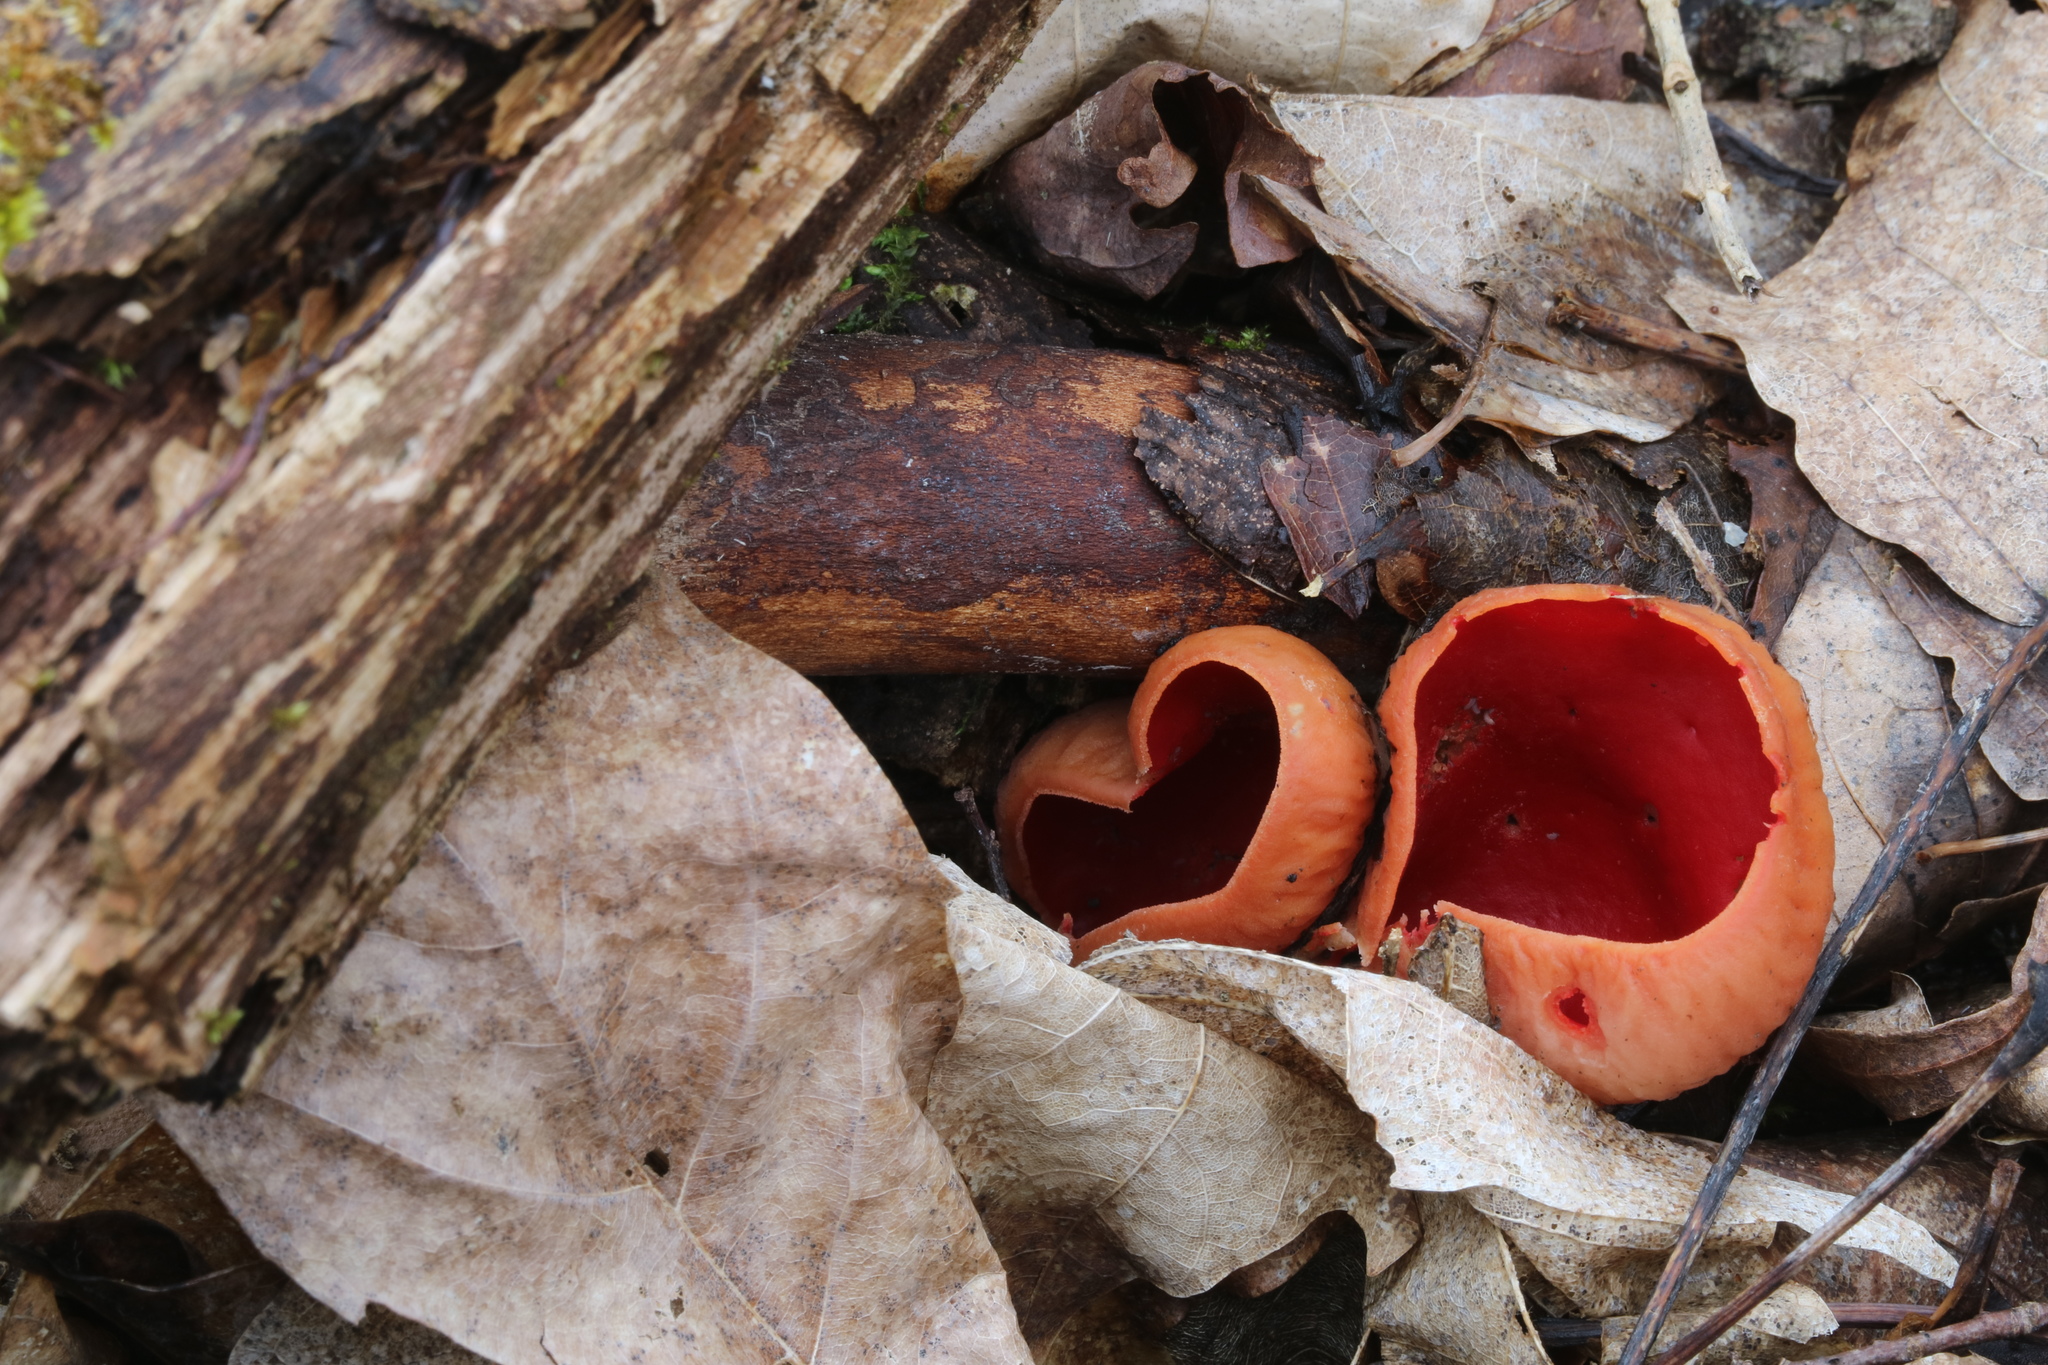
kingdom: Fungi
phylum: Ascomycota
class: Pezizomycetes
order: Pezizales
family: Sarcoscyphaceae
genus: Sarcoscypha
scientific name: Sarcoscypha austriaca
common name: Scarlet elfcup
